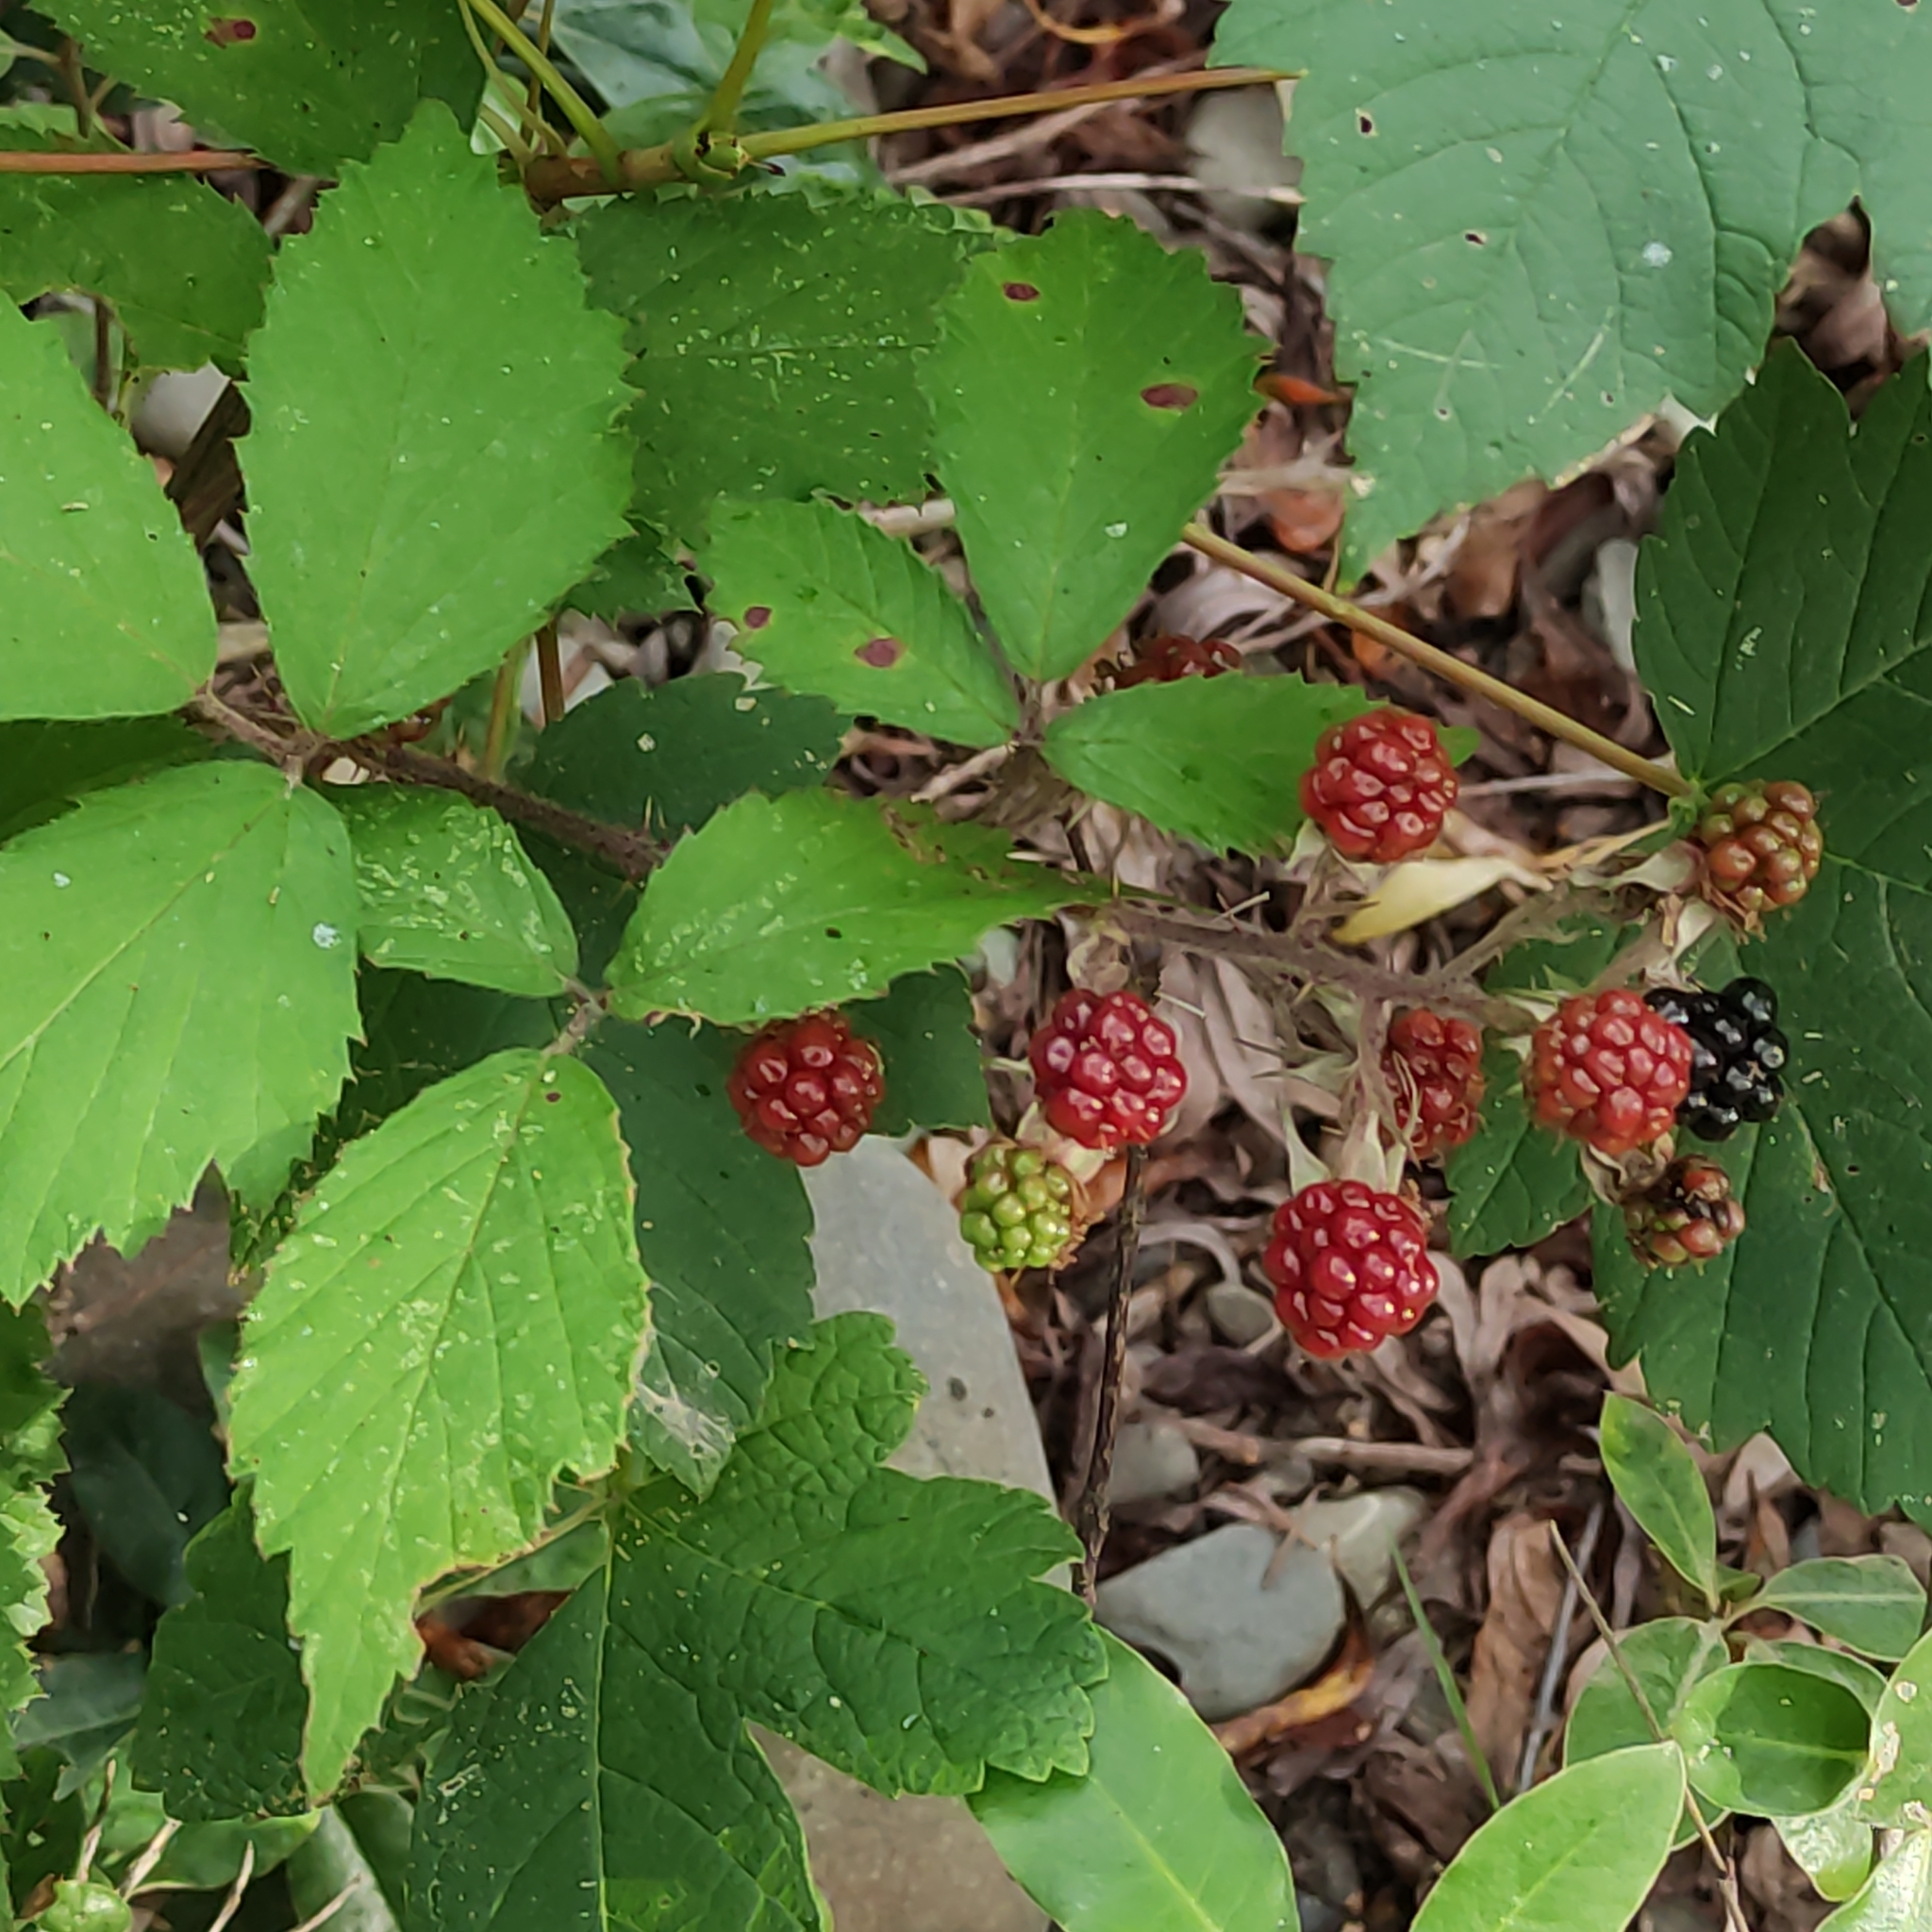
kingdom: Plantae
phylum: Tracheophyta
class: Magnoliopsida
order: Rosales
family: Rosaceae
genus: Rubus
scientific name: Rubus
